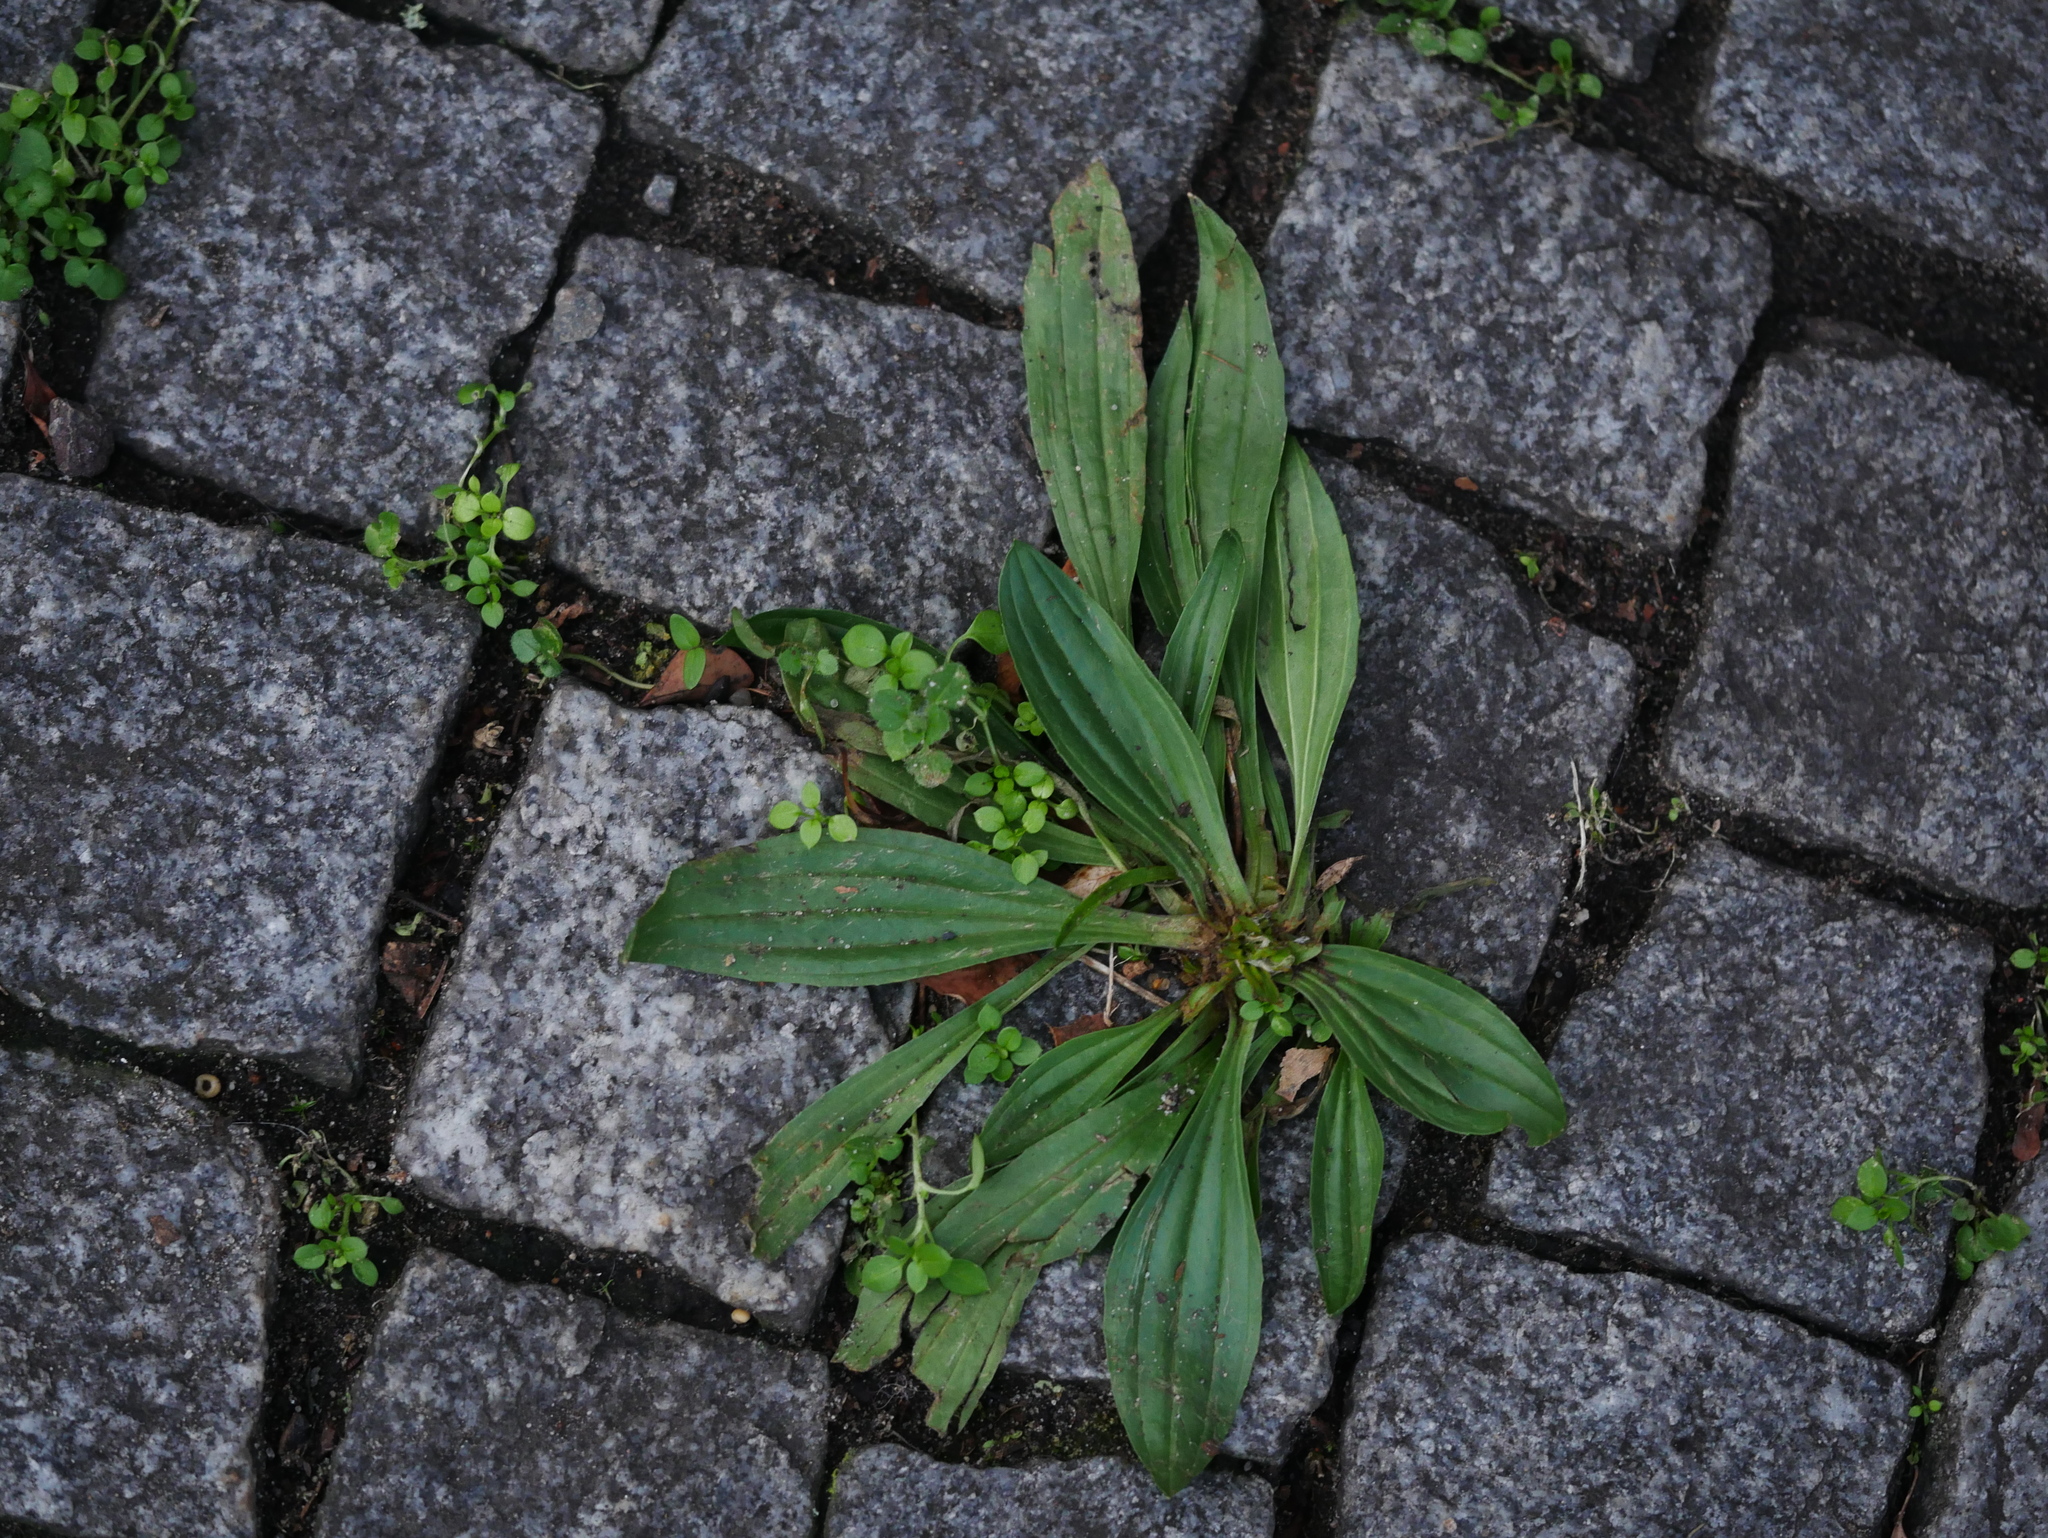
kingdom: Plantae
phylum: Tracheophyta
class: Magnoliopsida
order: Lamiales
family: Plantaginaceae
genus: Plantago
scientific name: Plantago lanceolata
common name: Ribwort plantain
